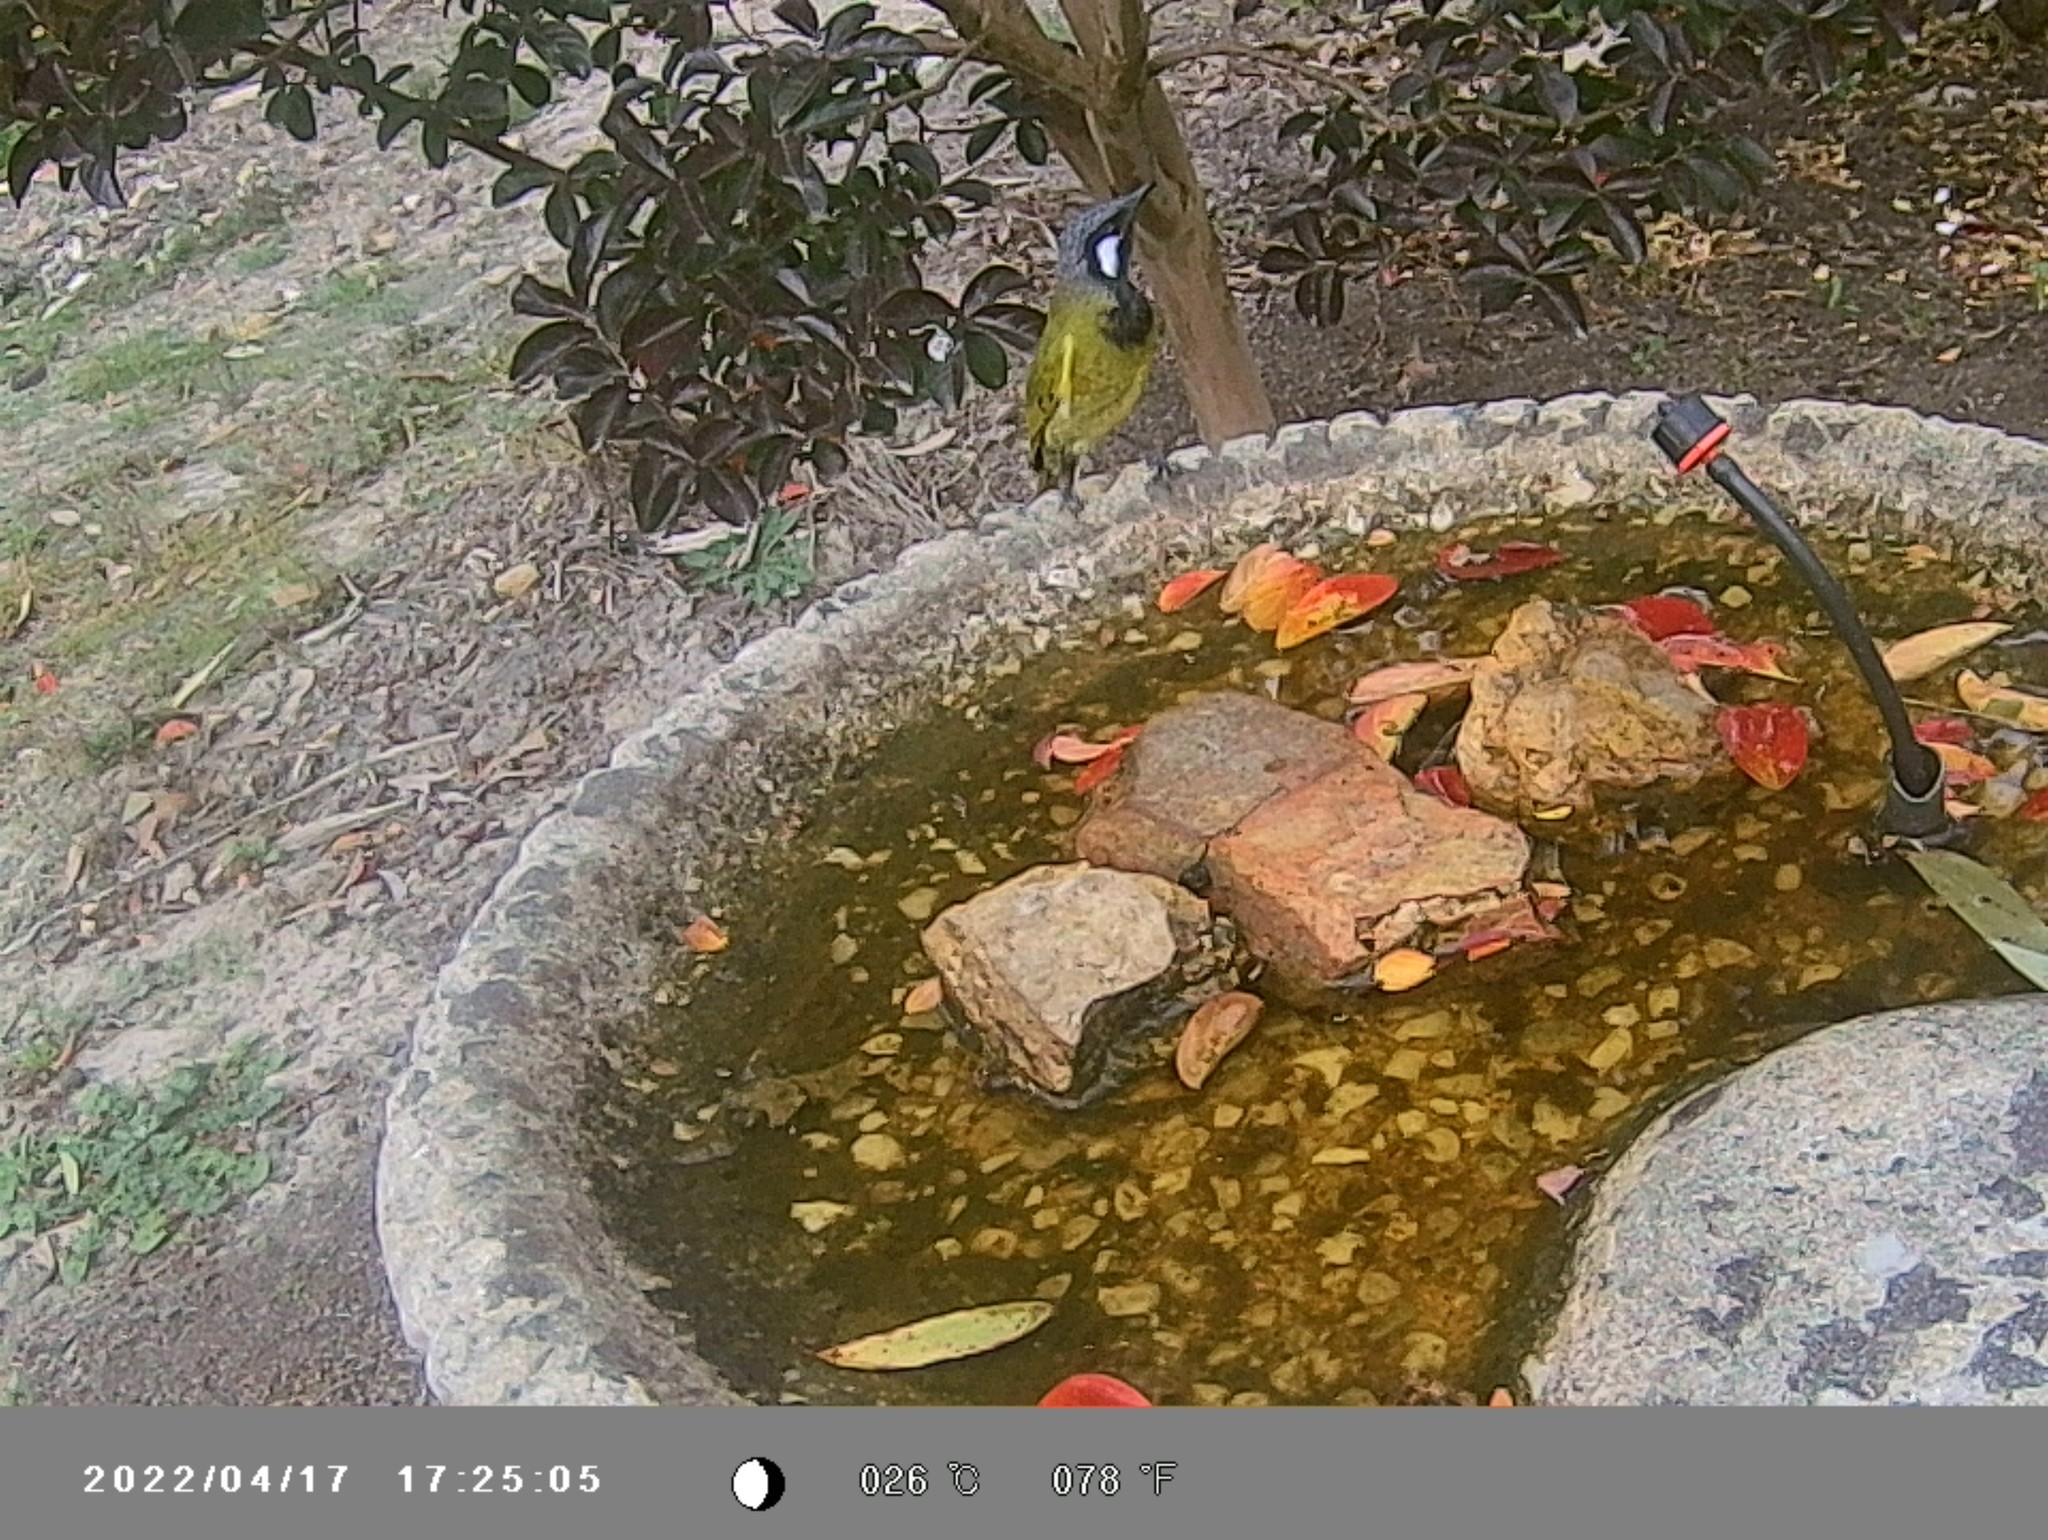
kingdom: Animalia
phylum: Chordata
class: Aves
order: Passeriformes
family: Meliphagidae
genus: Nesoptilotis
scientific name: Nesoptilotis leucotis
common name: White-eared honeyeater
